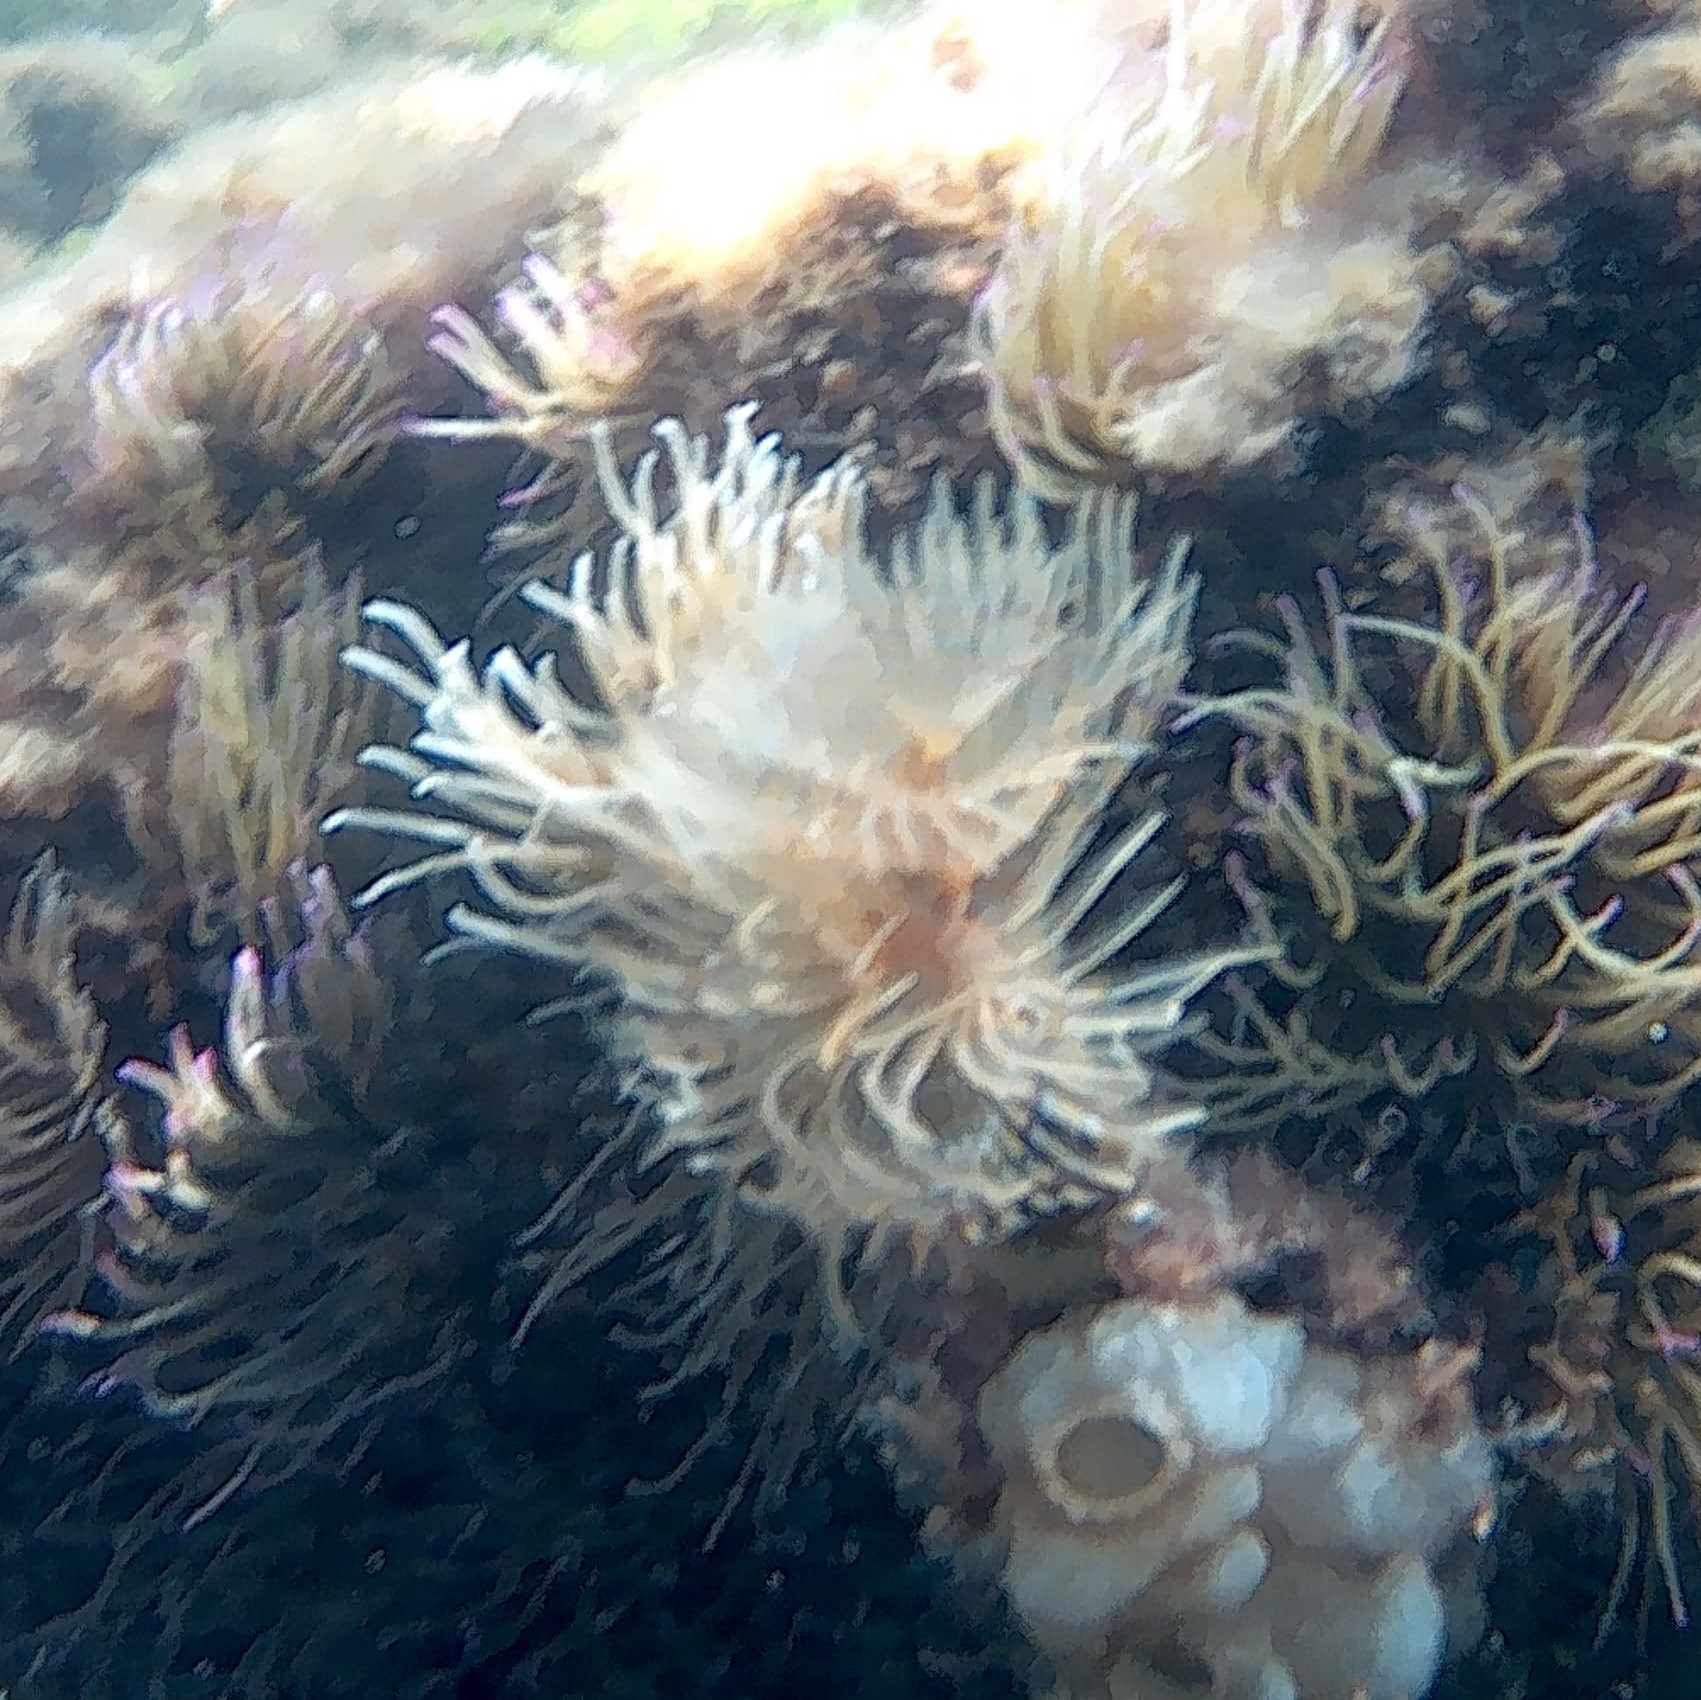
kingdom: Animalia
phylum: Annelida
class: Polychaeta
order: Sabellida
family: Sabellidae
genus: Sabella
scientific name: Sabella spallanzanii
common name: Feather duster worm
